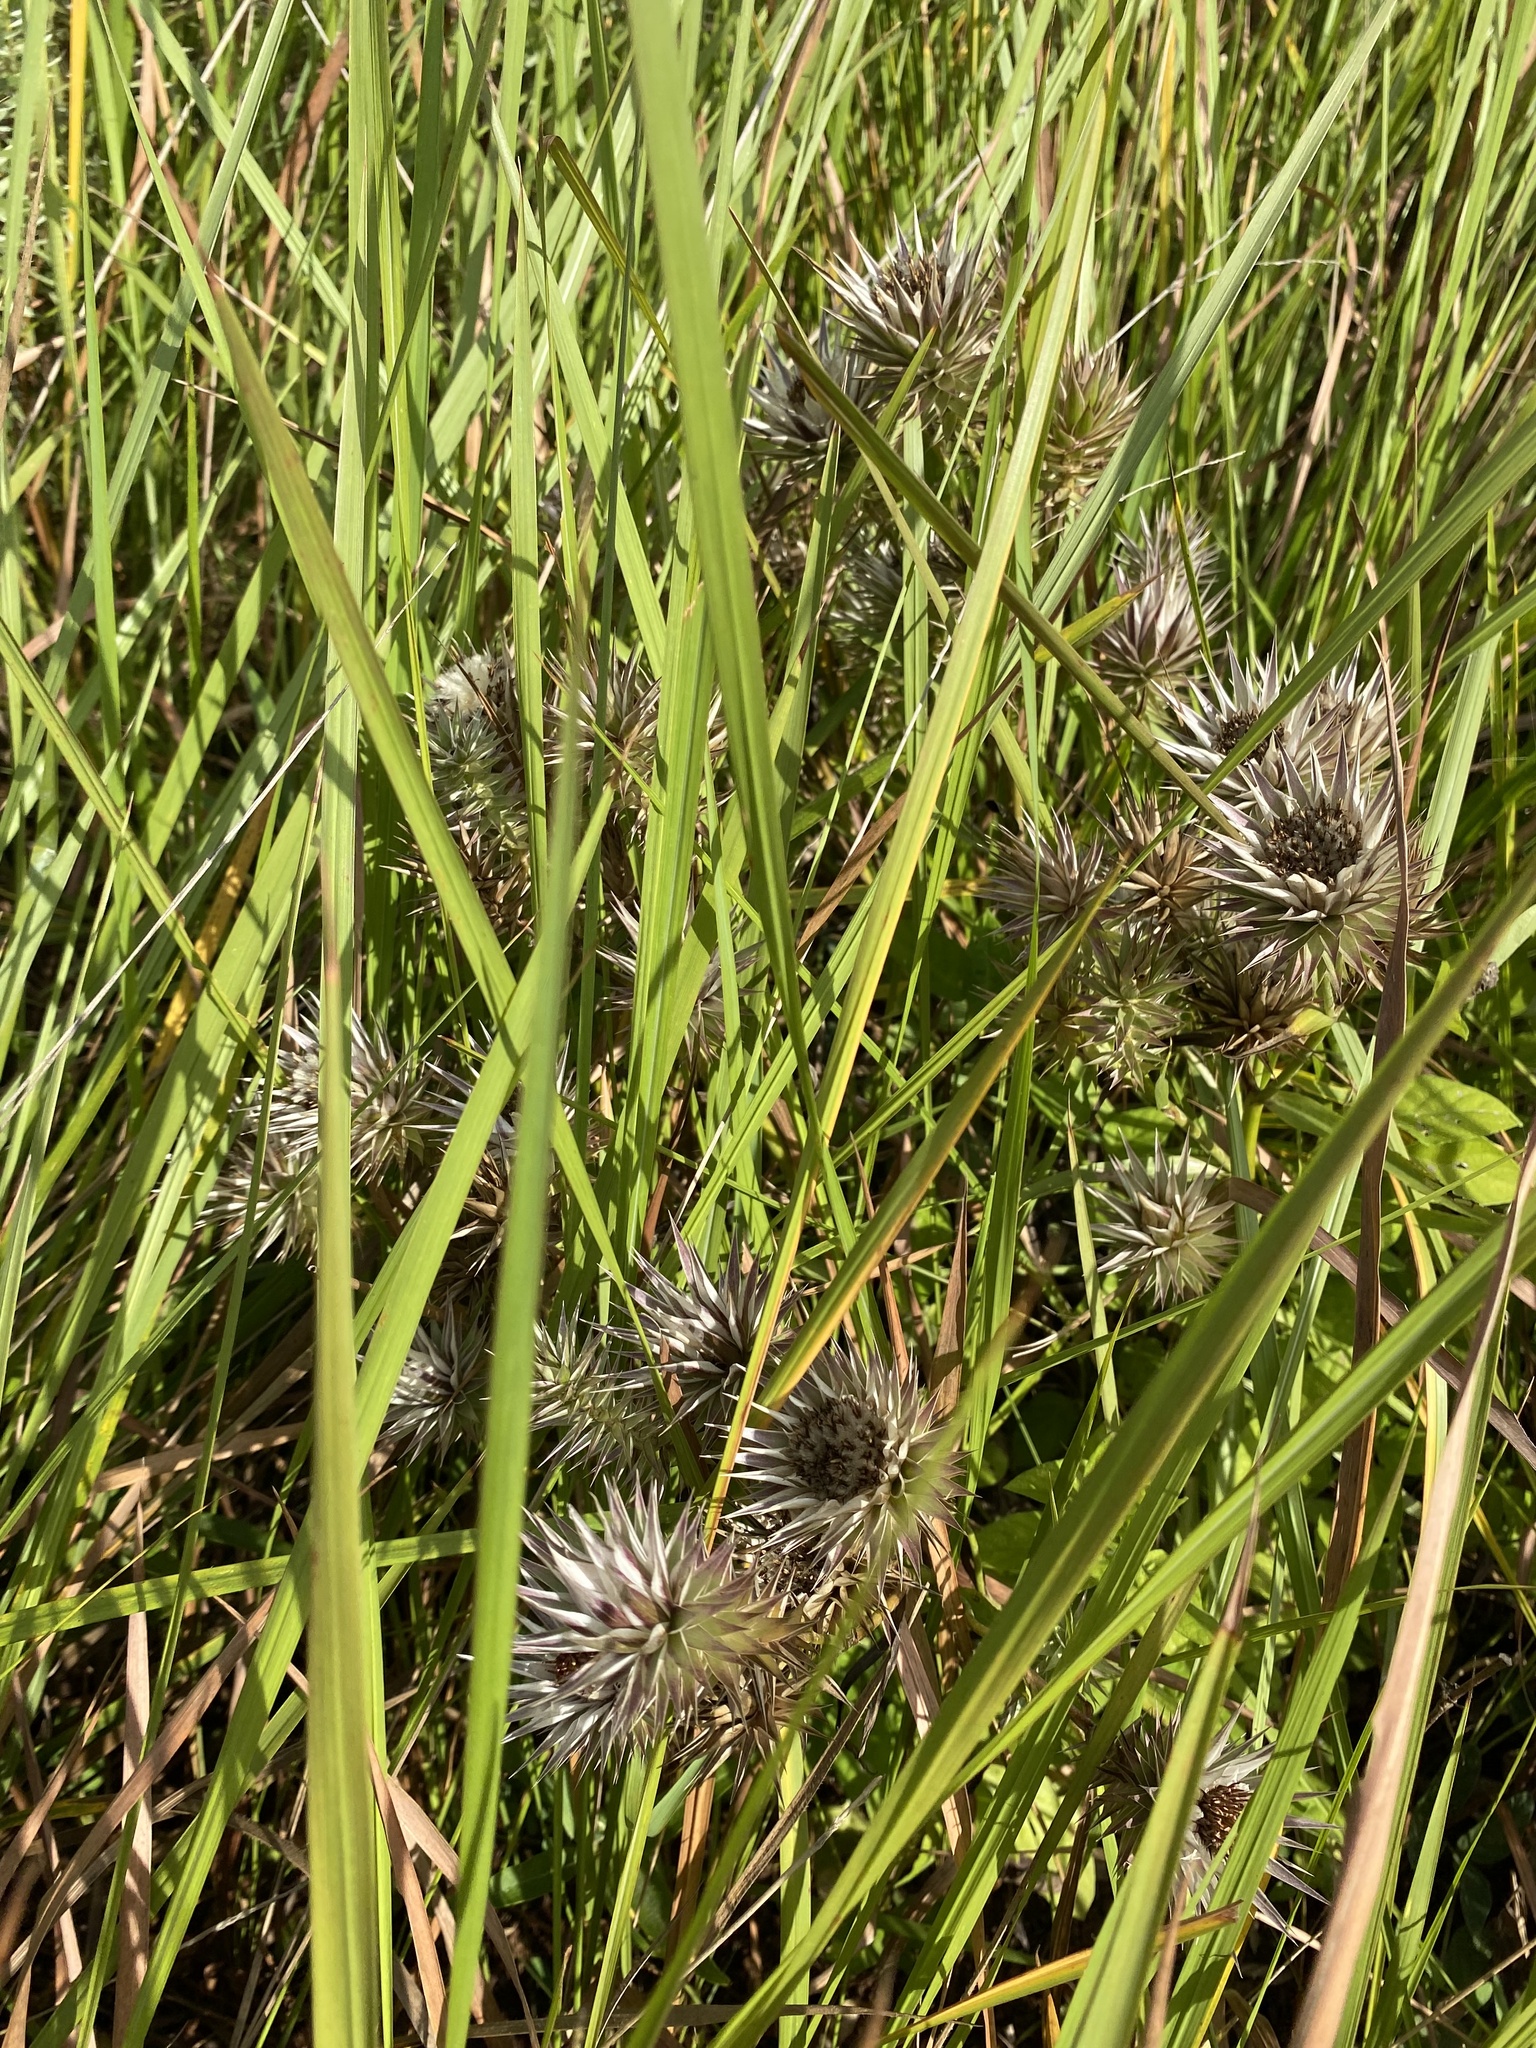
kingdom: Plantae
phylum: Tracheophyta
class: Magnoliopsida
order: Asterales
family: Asteraceae
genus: Macledium
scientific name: Macledium zeyheri
